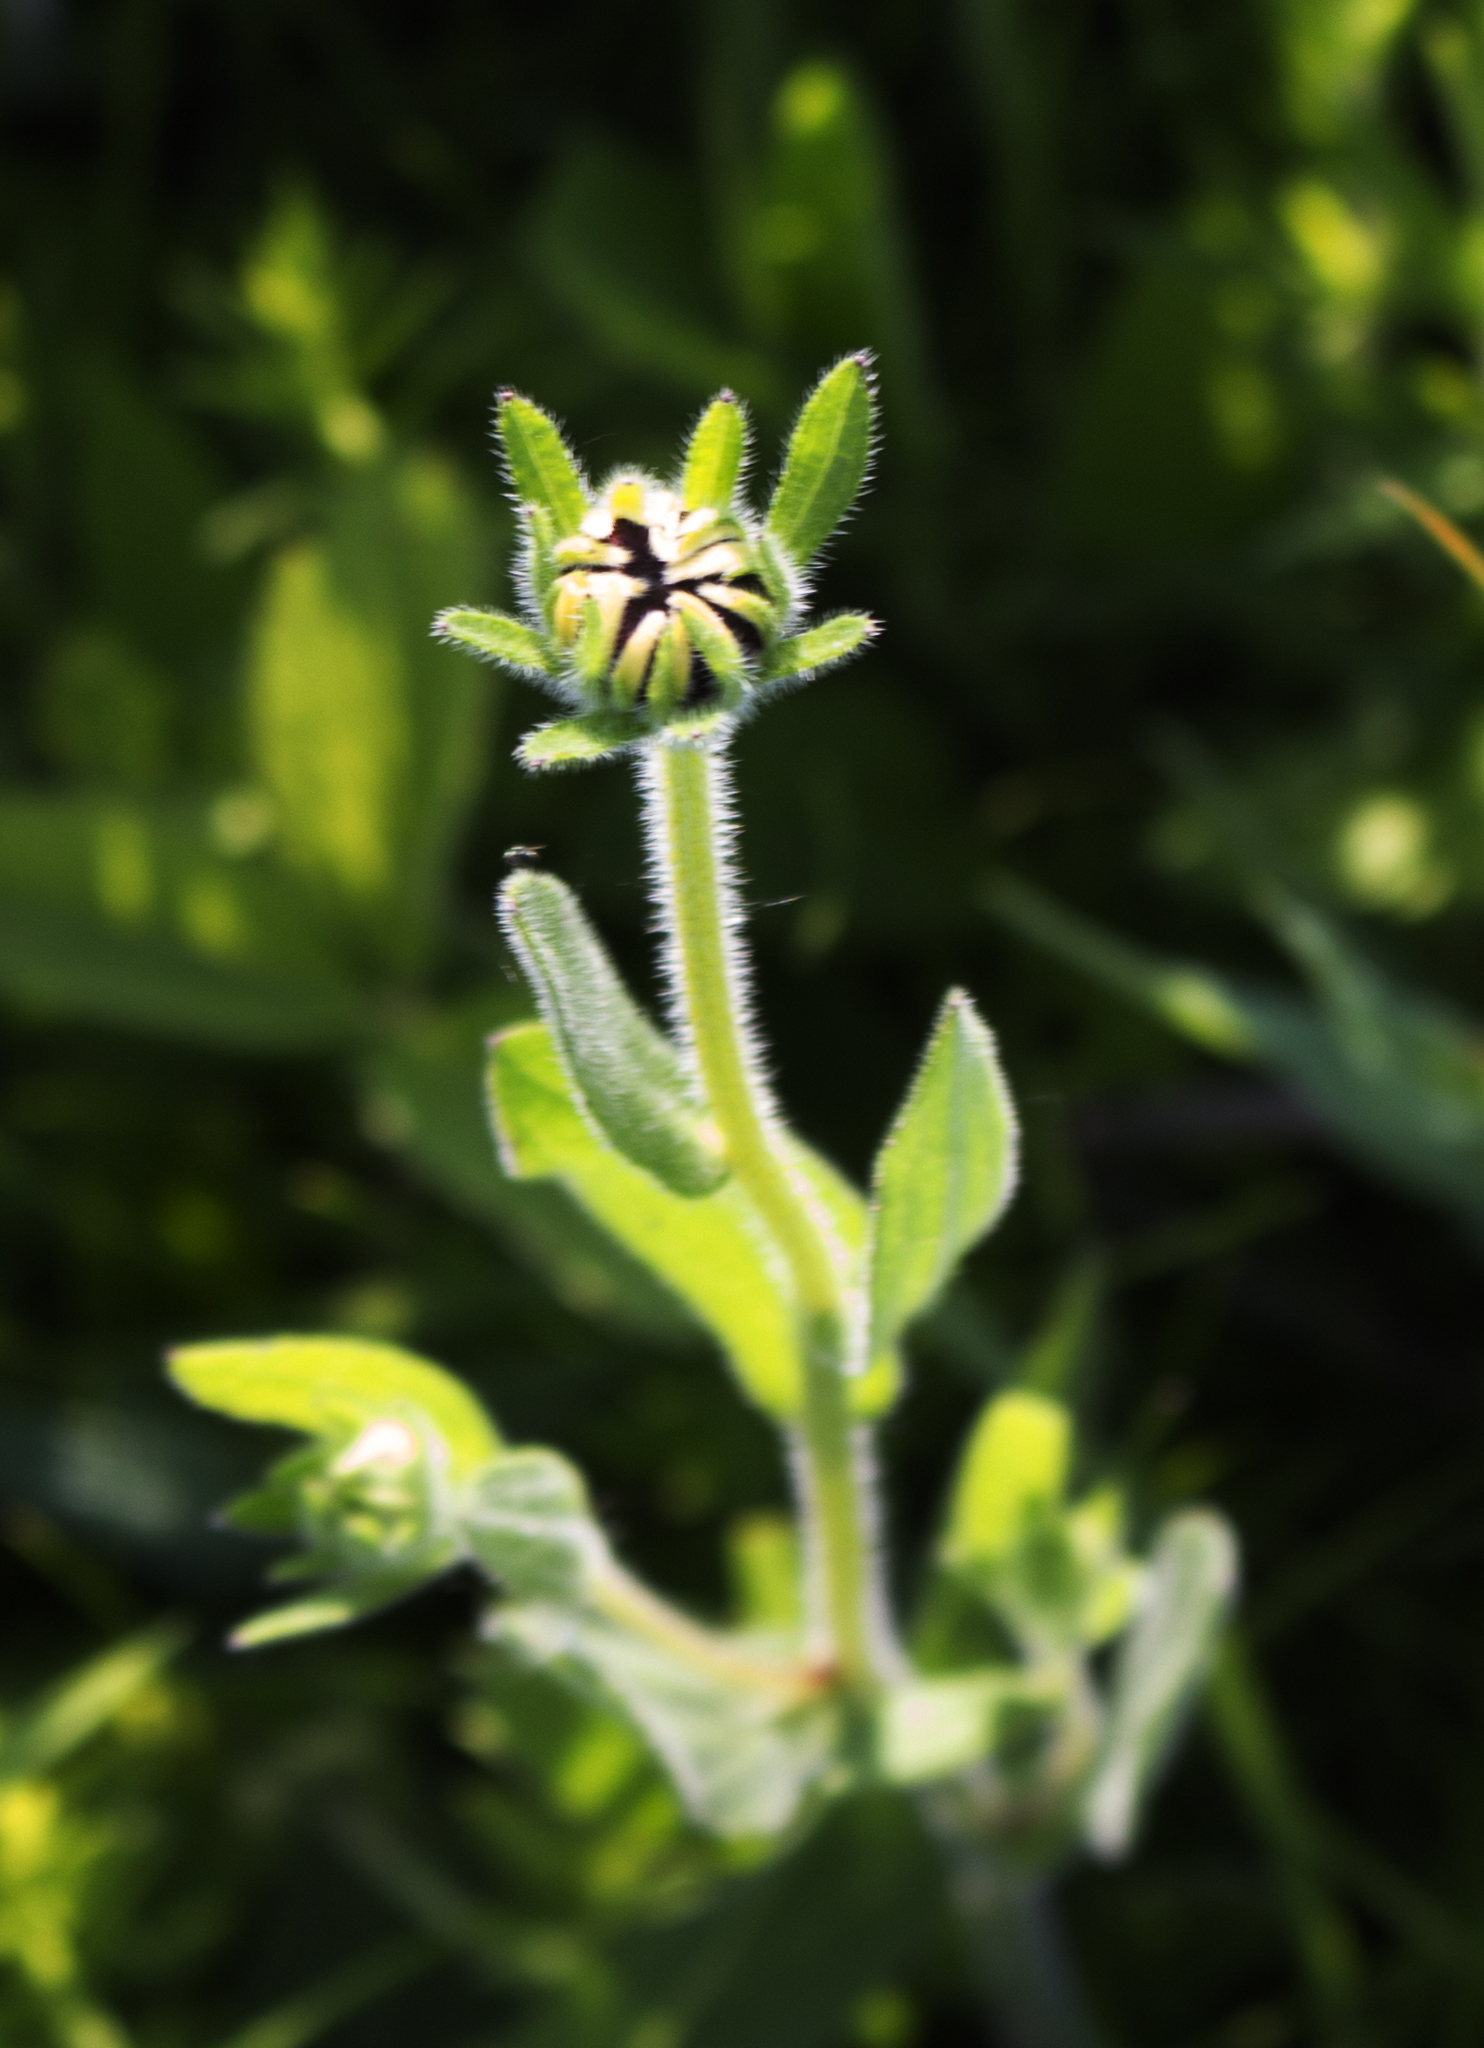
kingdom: Plantae
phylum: Tracheophyta
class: Magnoliopsida
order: Asterales
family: Asteraceae
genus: Rudbeckia
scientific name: Rudbeckia hirta
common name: Black-eyed-susan
